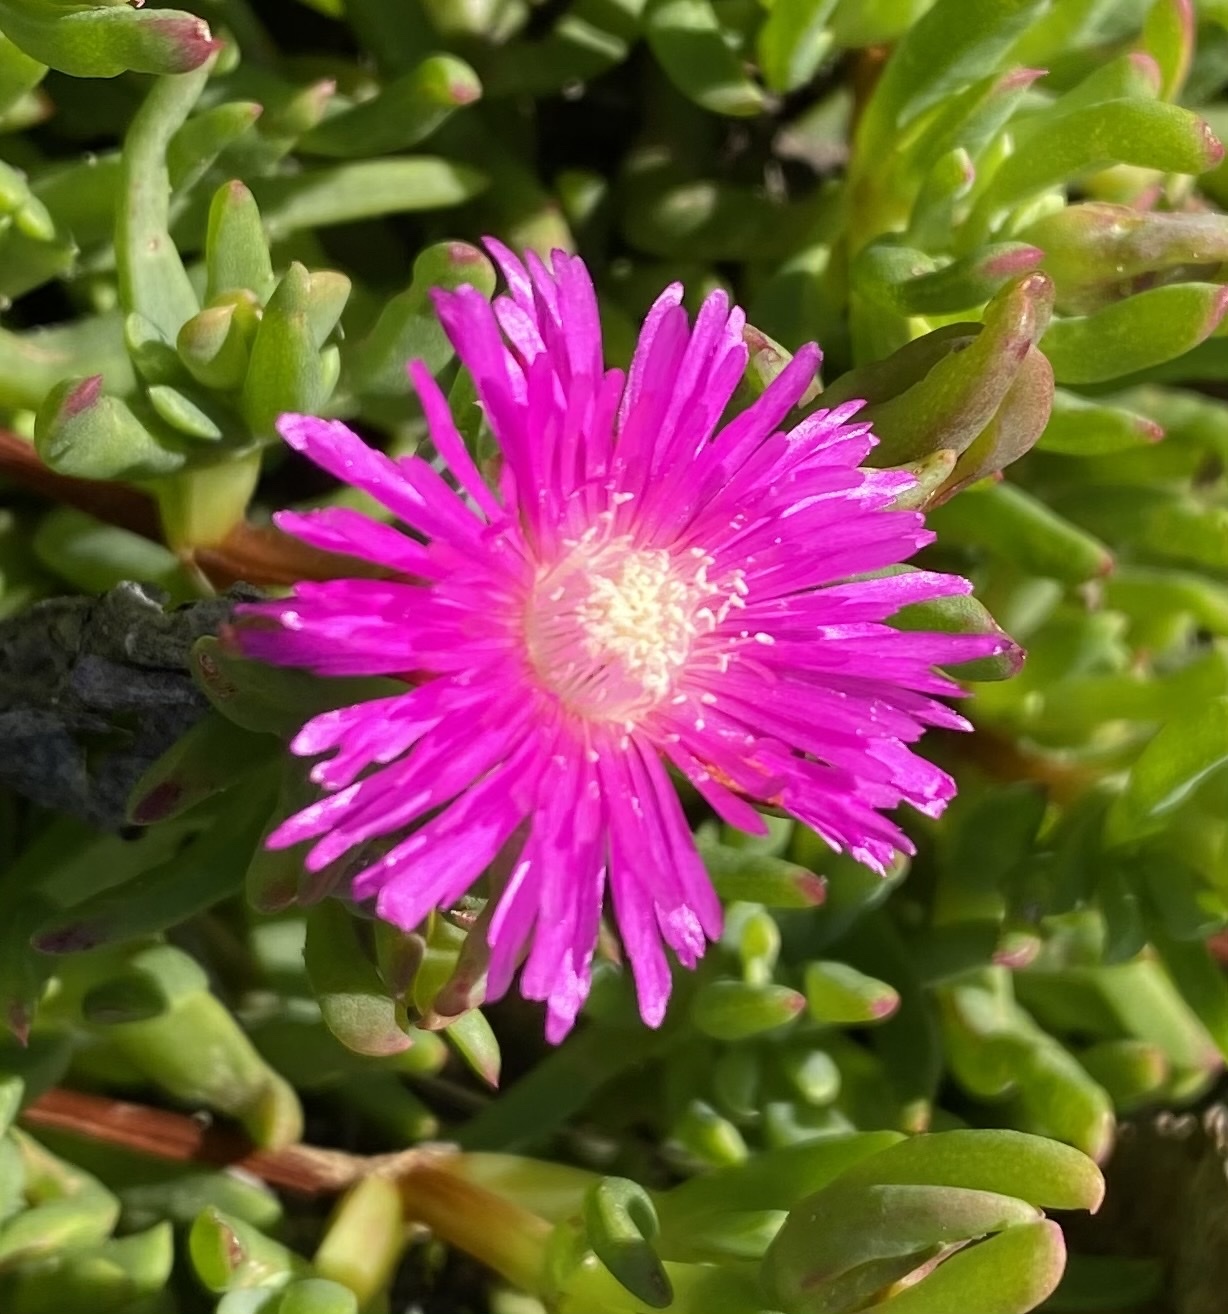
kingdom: Plantae
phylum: Tracheophyta
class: Magnoliopsida
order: Caryophyllales
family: Aizoaceae
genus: Ruschia
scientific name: Ruschia duthiae
